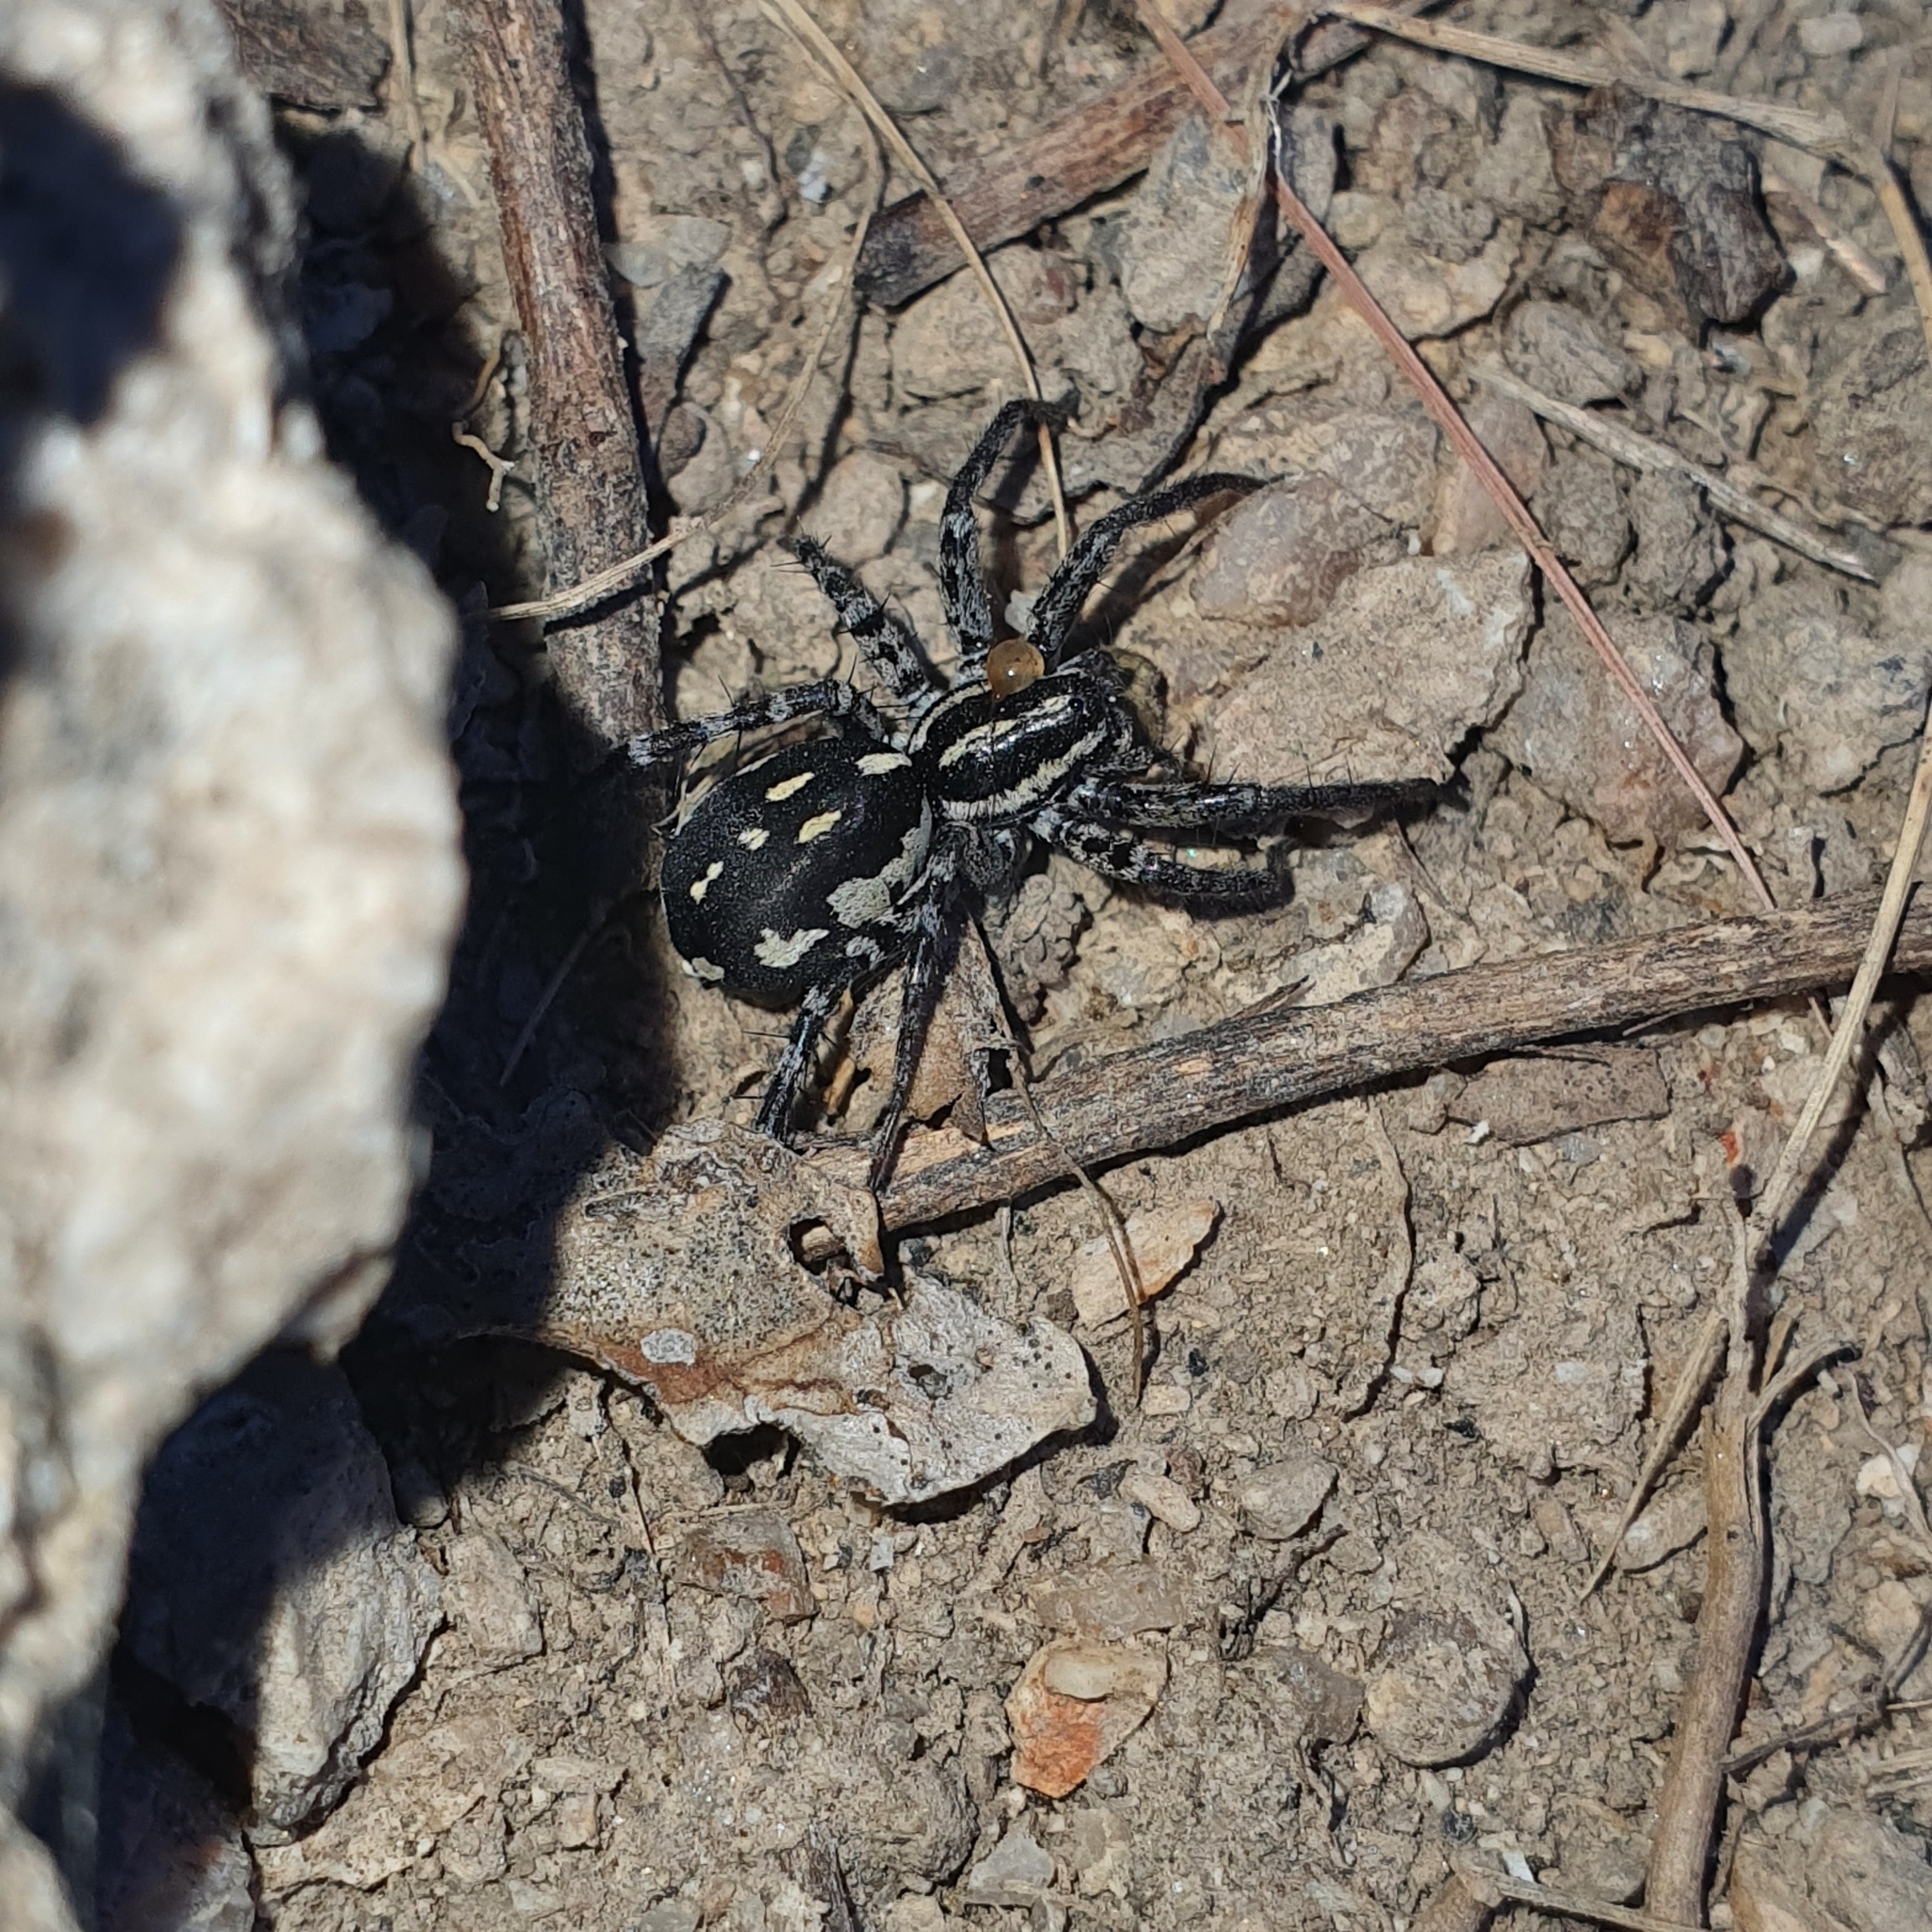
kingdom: Animalia
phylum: Arthropoda
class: Arachnida
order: Araneae
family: Corinnidae
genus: Nyssus
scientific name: Nyssus coloripes
